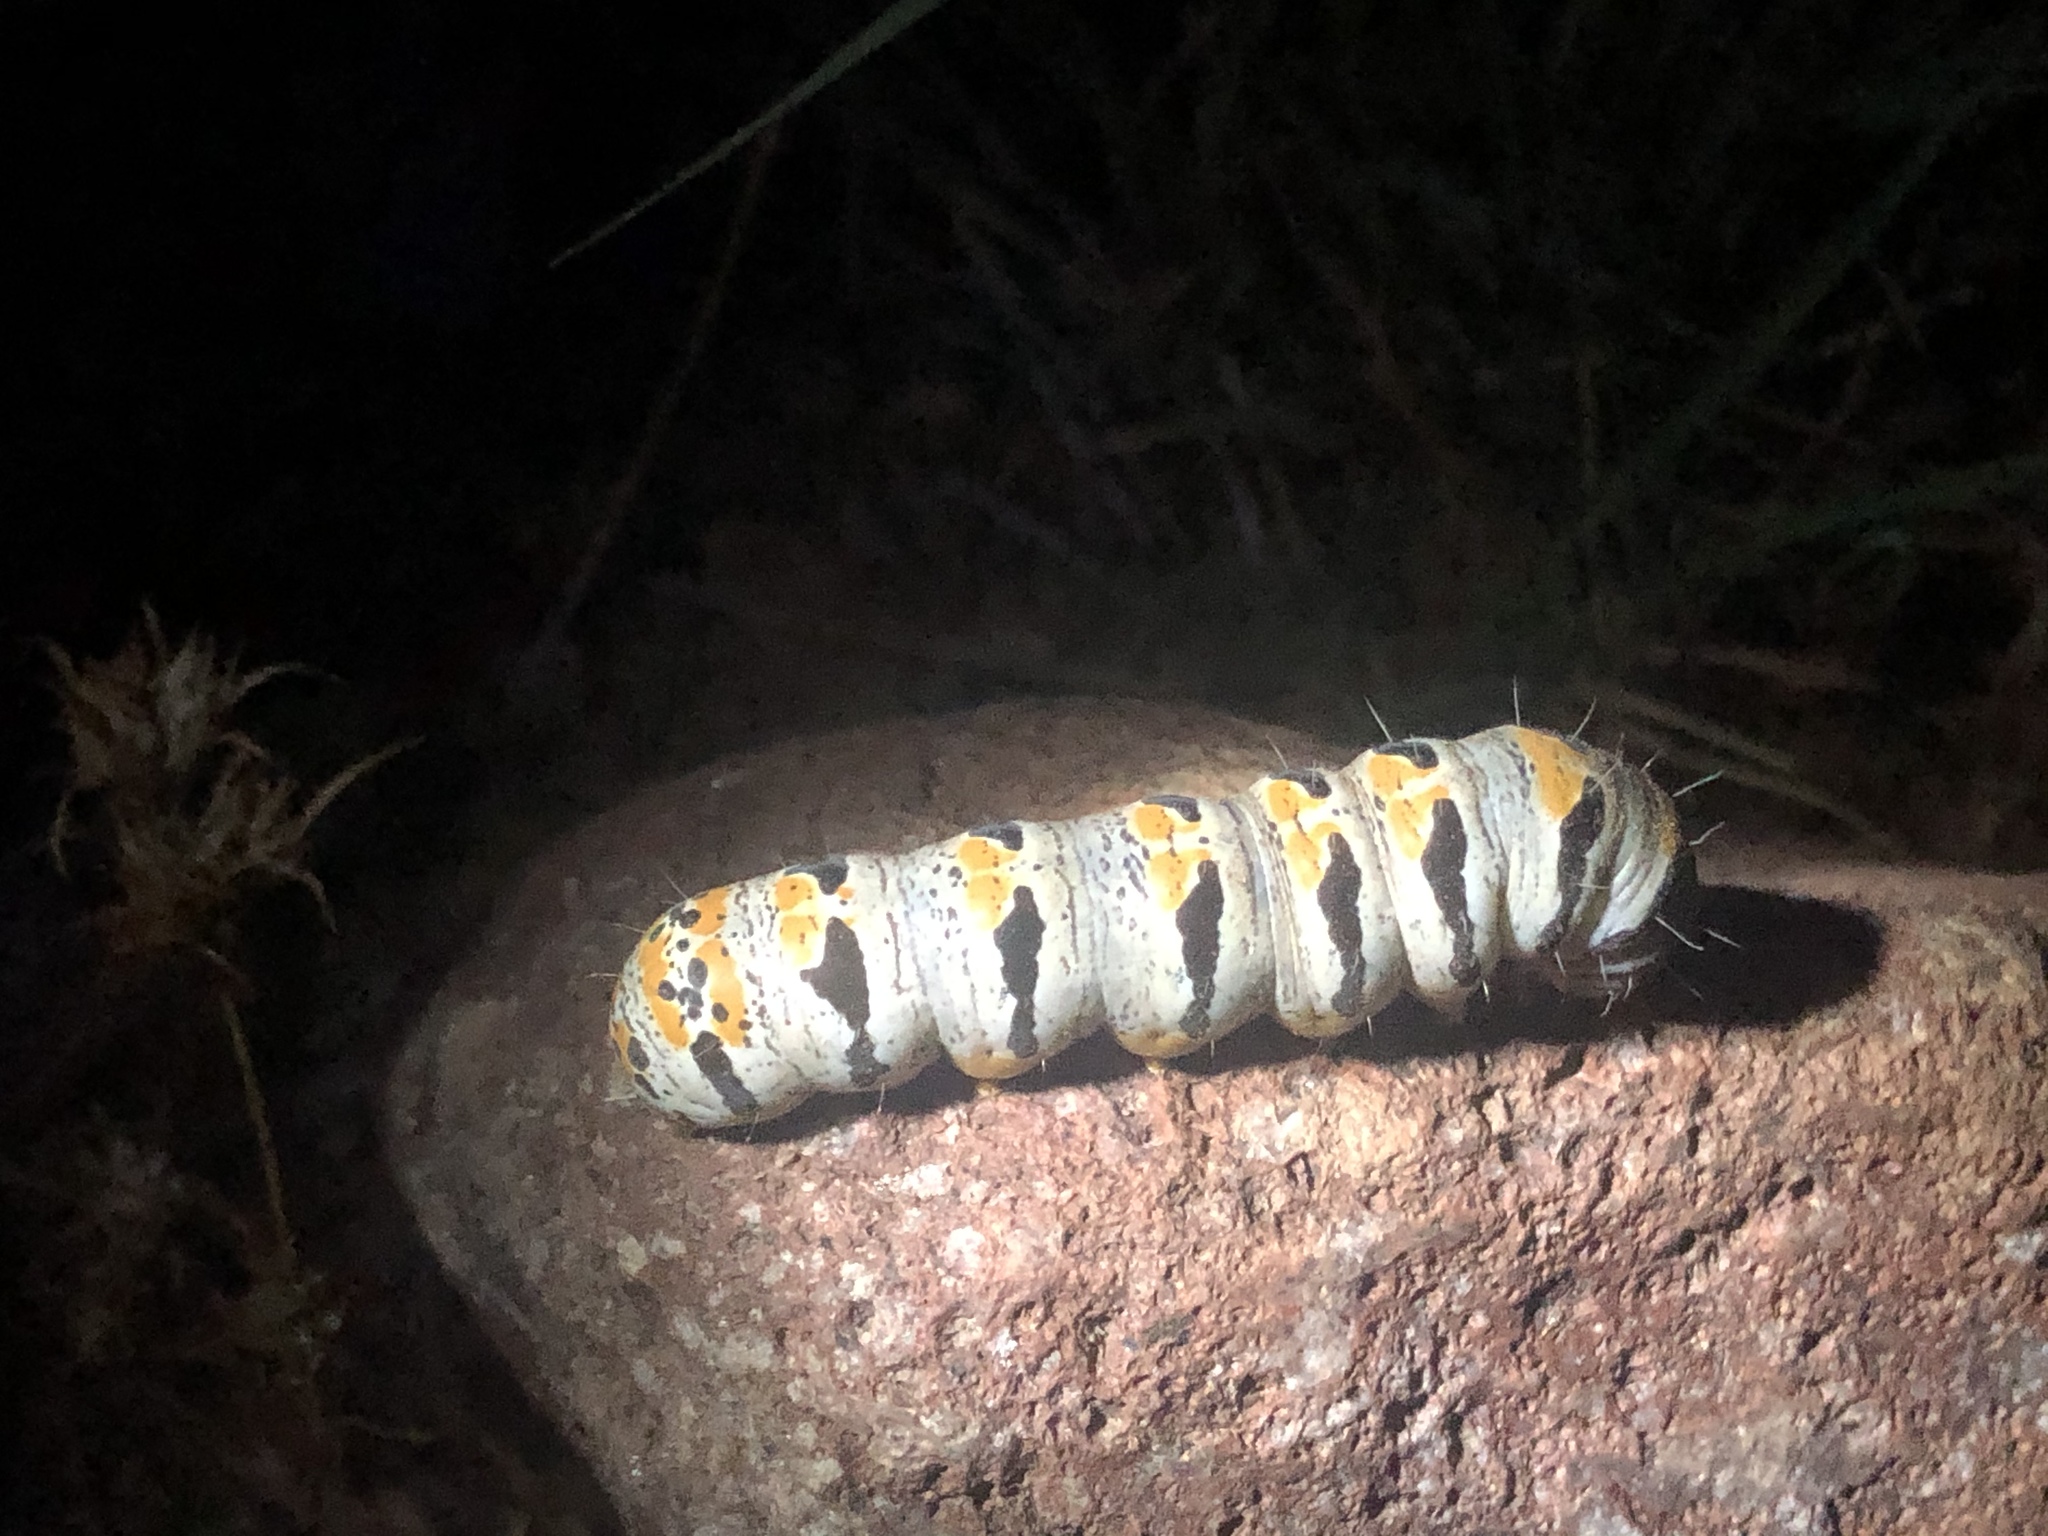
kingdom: Animalia
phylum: Arthropoda
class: Insecta
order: Lepidoptera
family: Noctuidae
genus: Euscirrhopterus
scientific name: Euscirrhopterus gloveri
